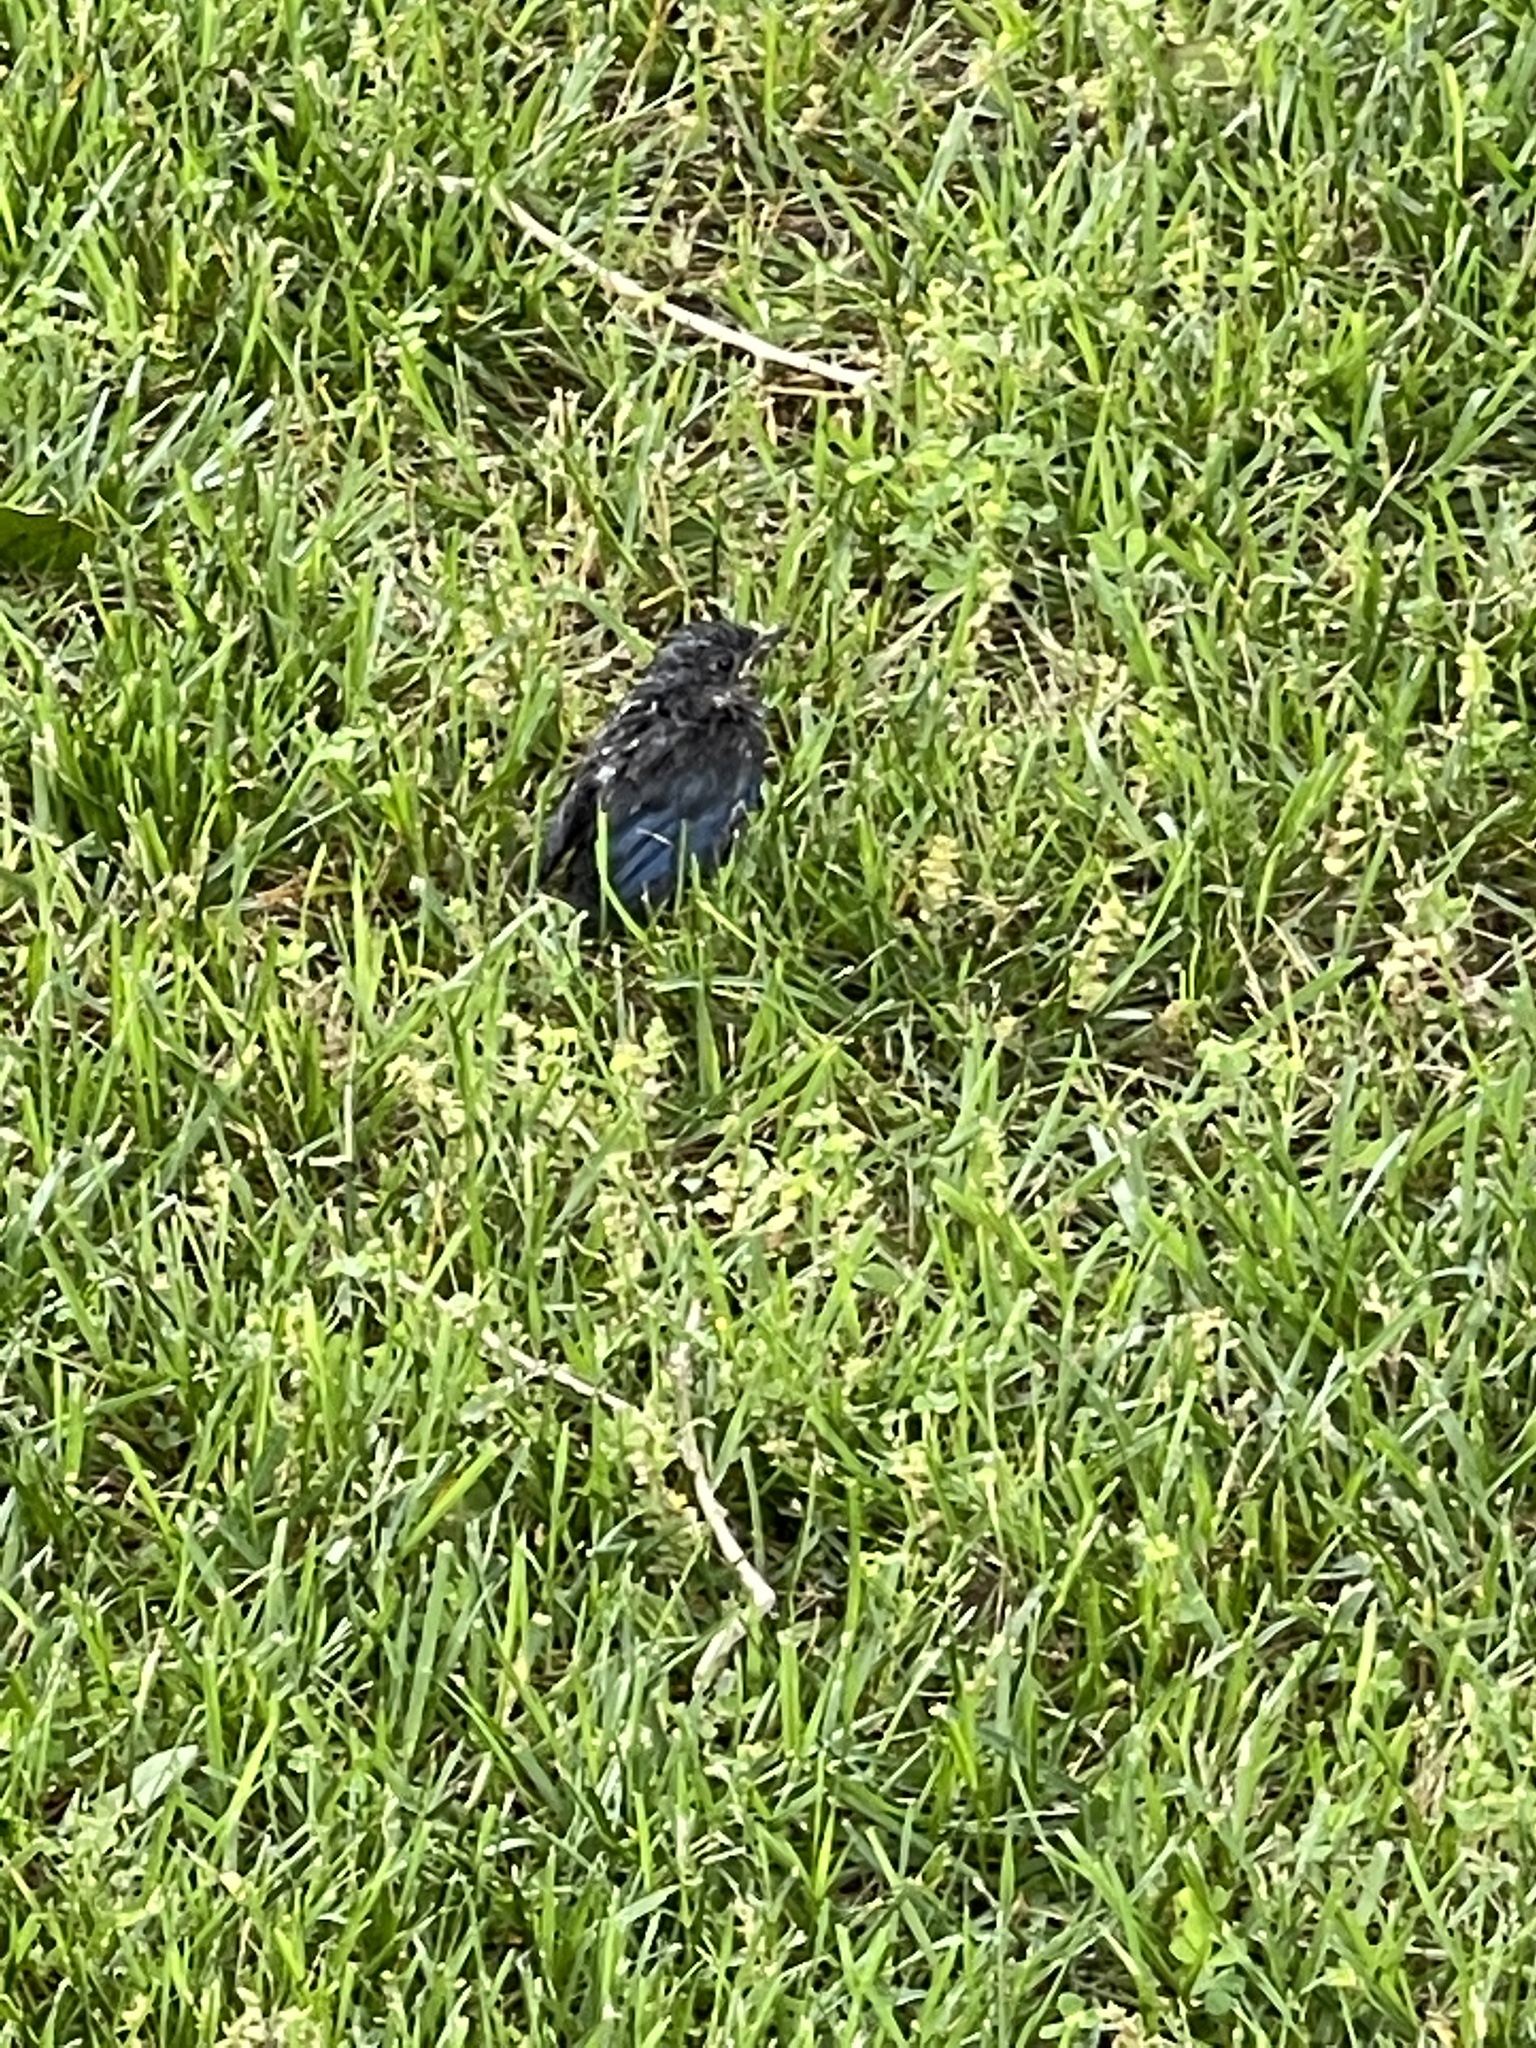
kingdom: Animalia
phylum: Chordata
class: Aves
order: Passeriformes
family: Turdidae
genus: Sialia
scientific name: Sialia sialis
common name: Eastern bluebird
